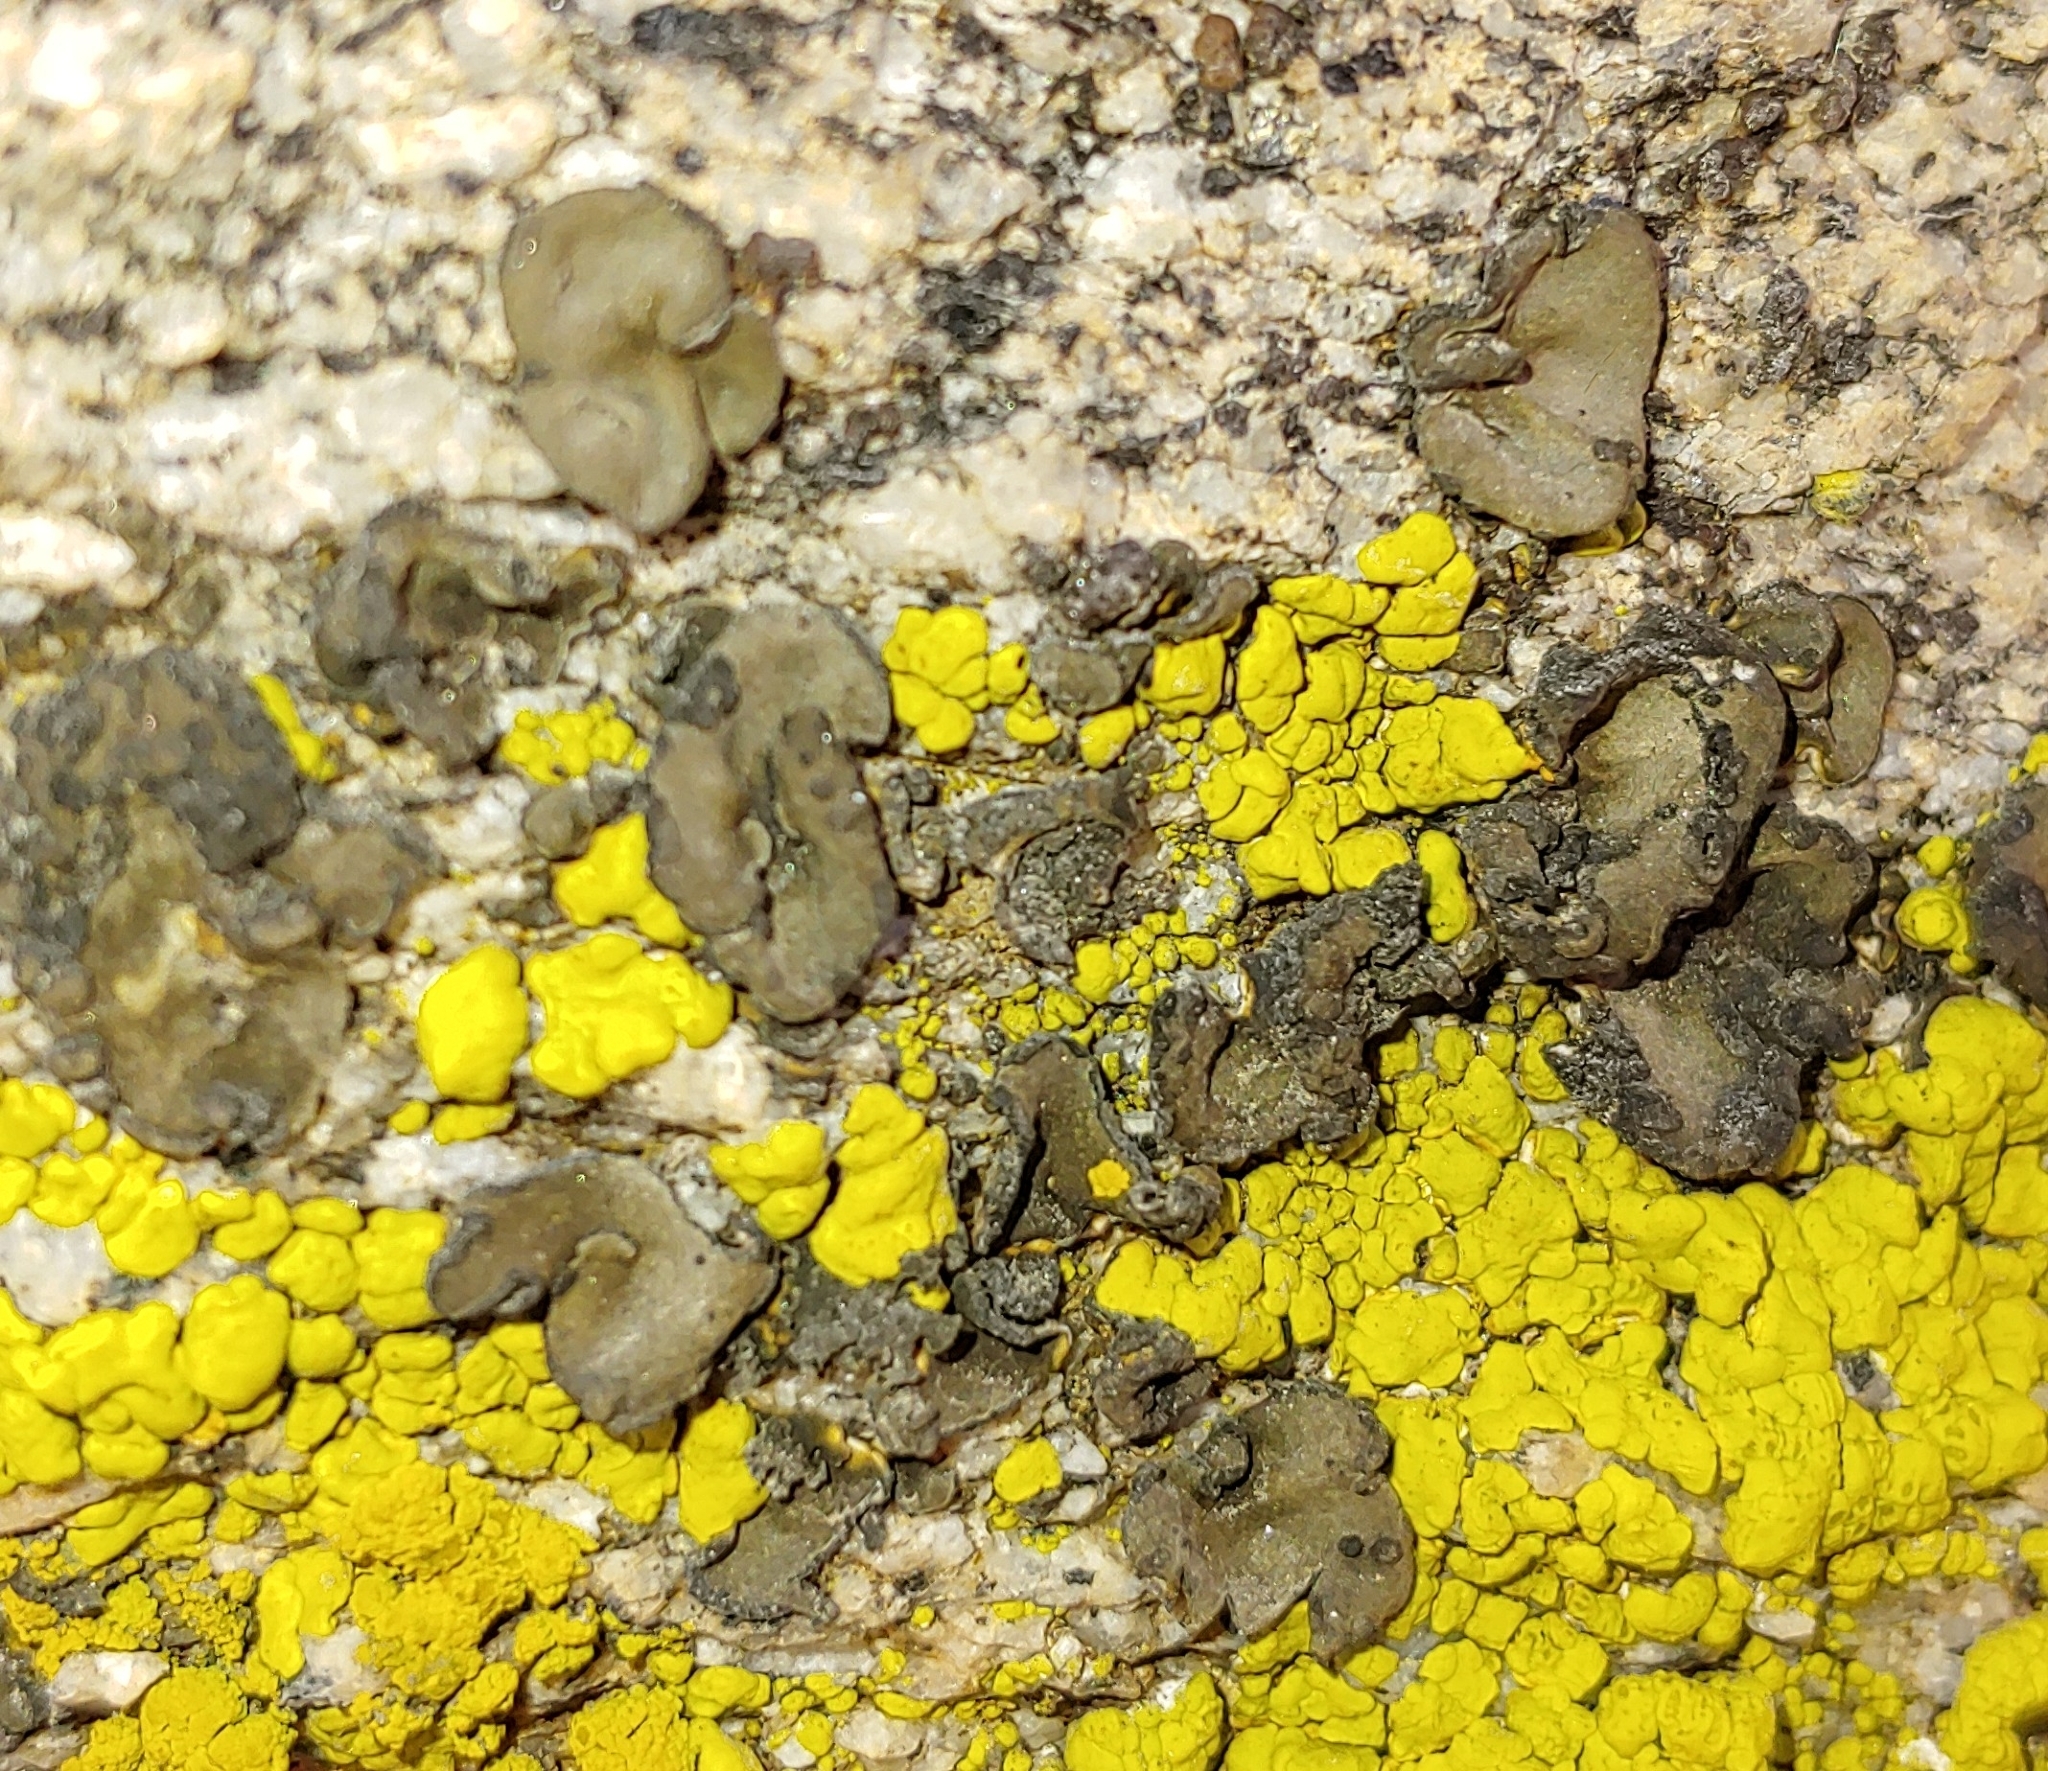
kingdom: Fungi
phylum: Ascomycota
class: Lichinomycetes
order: Lichinales
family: Peltulaceae
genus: Peltula
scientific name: Peltula euploca
